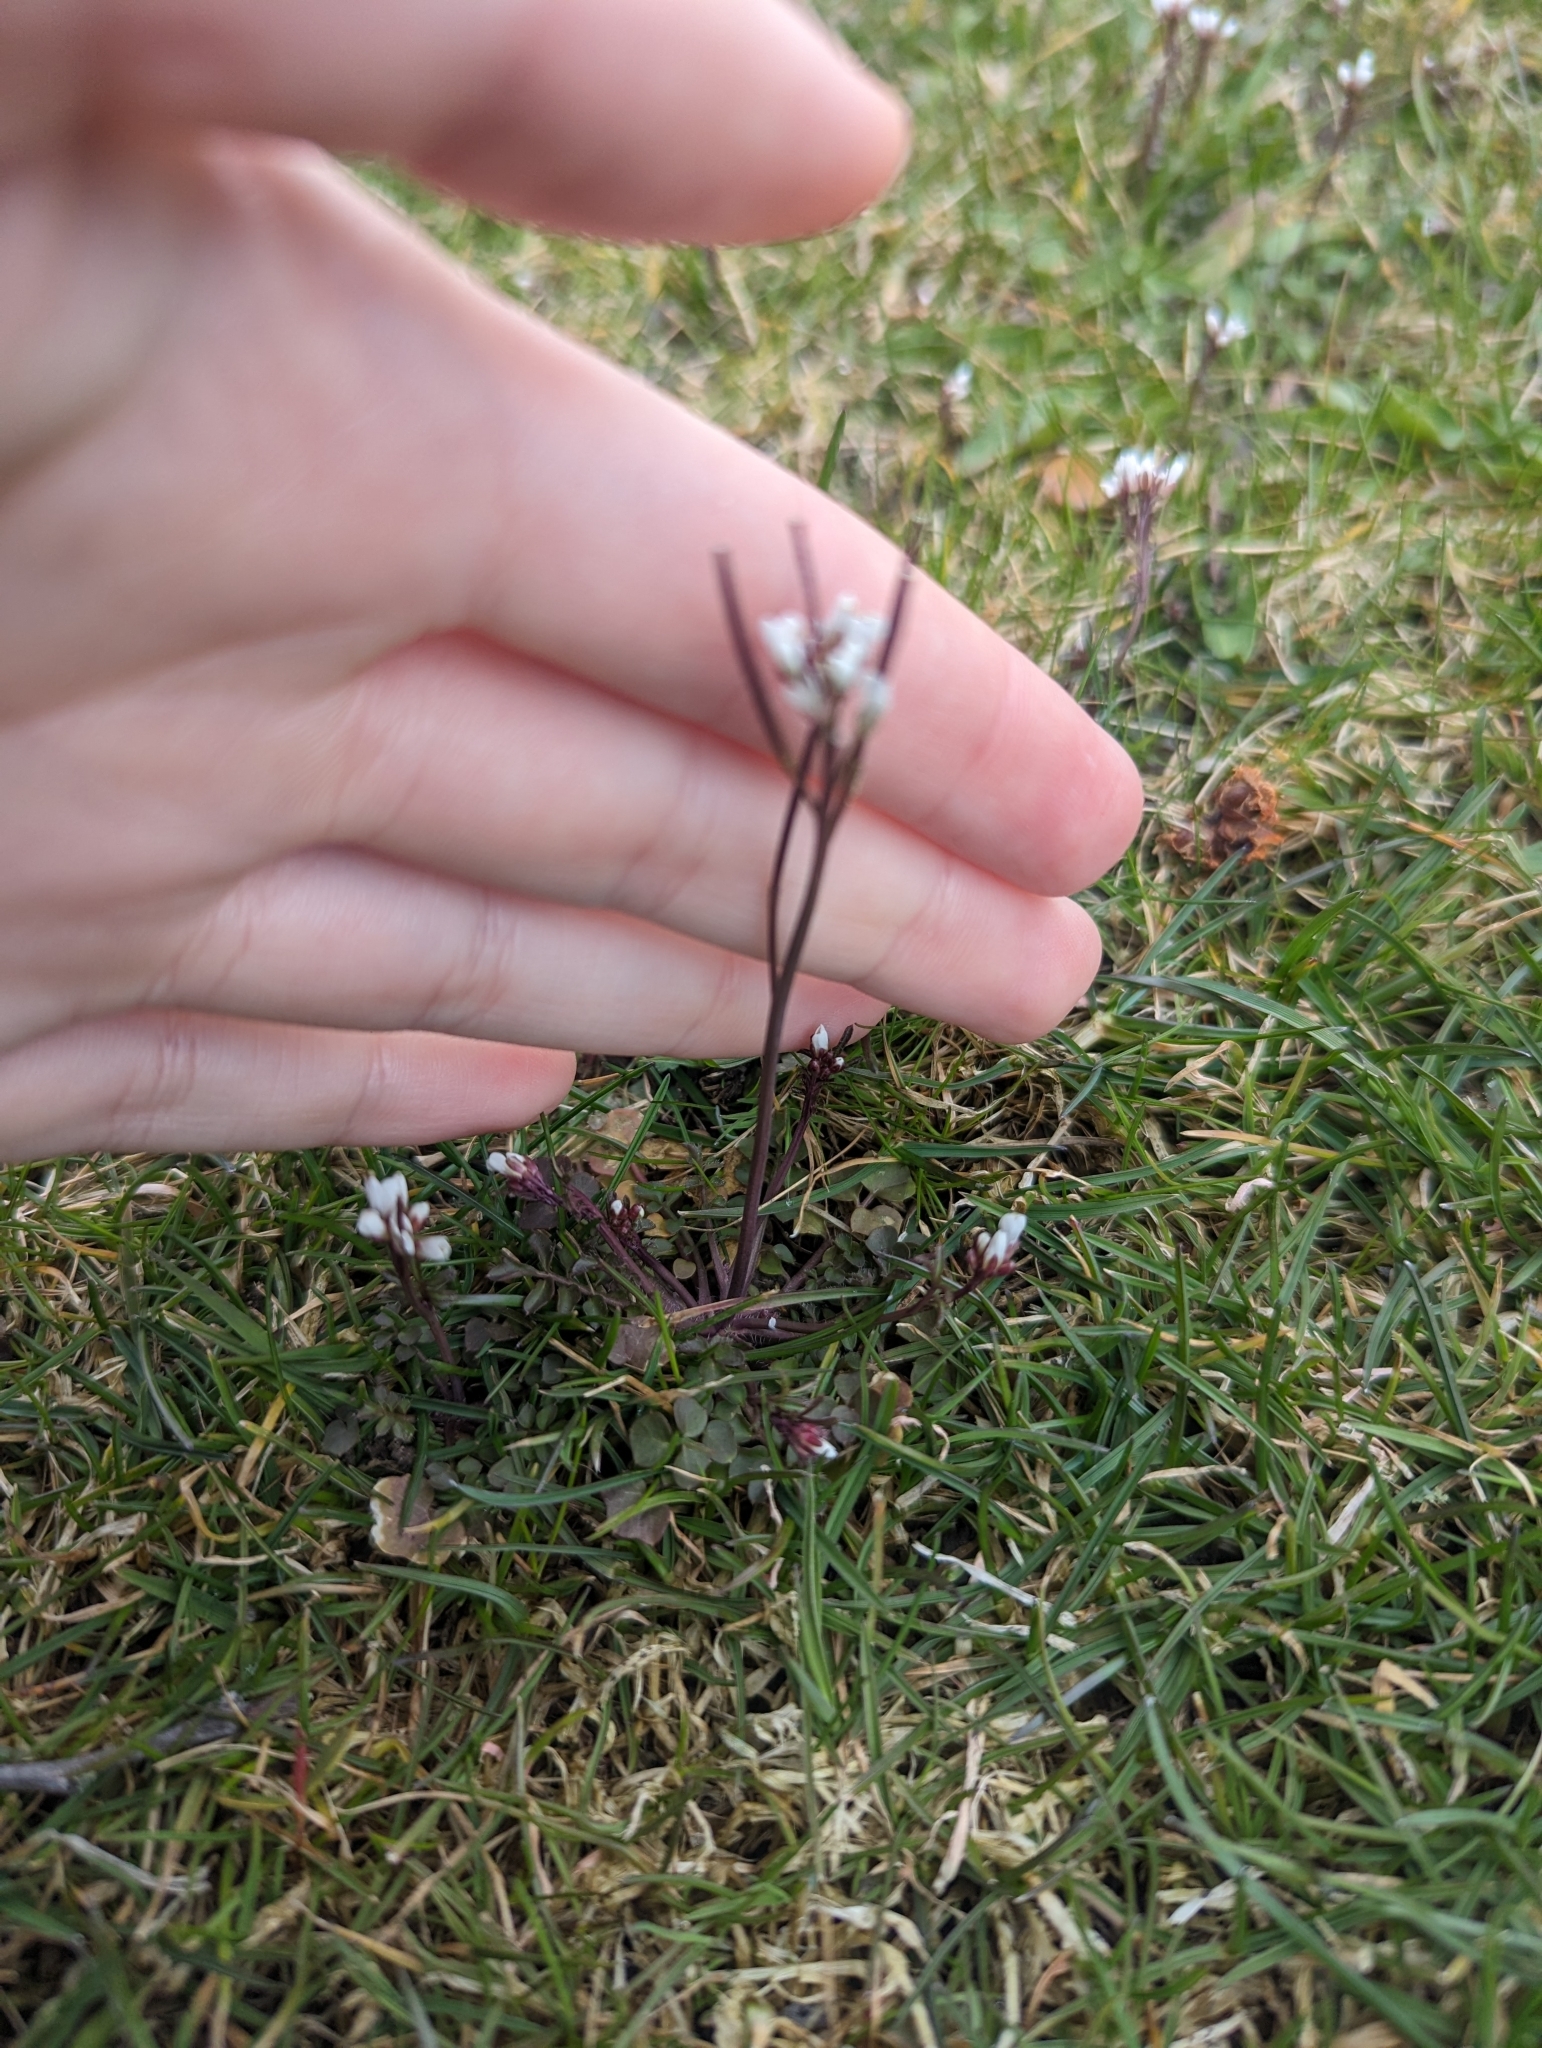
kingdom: Plantae
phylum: Tracheophyta
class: Magnoliopsida
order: Brassicales
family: Brassicaceae
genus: Cardamine
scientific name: Cardamine hirsuta
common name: Hairy bittercress
